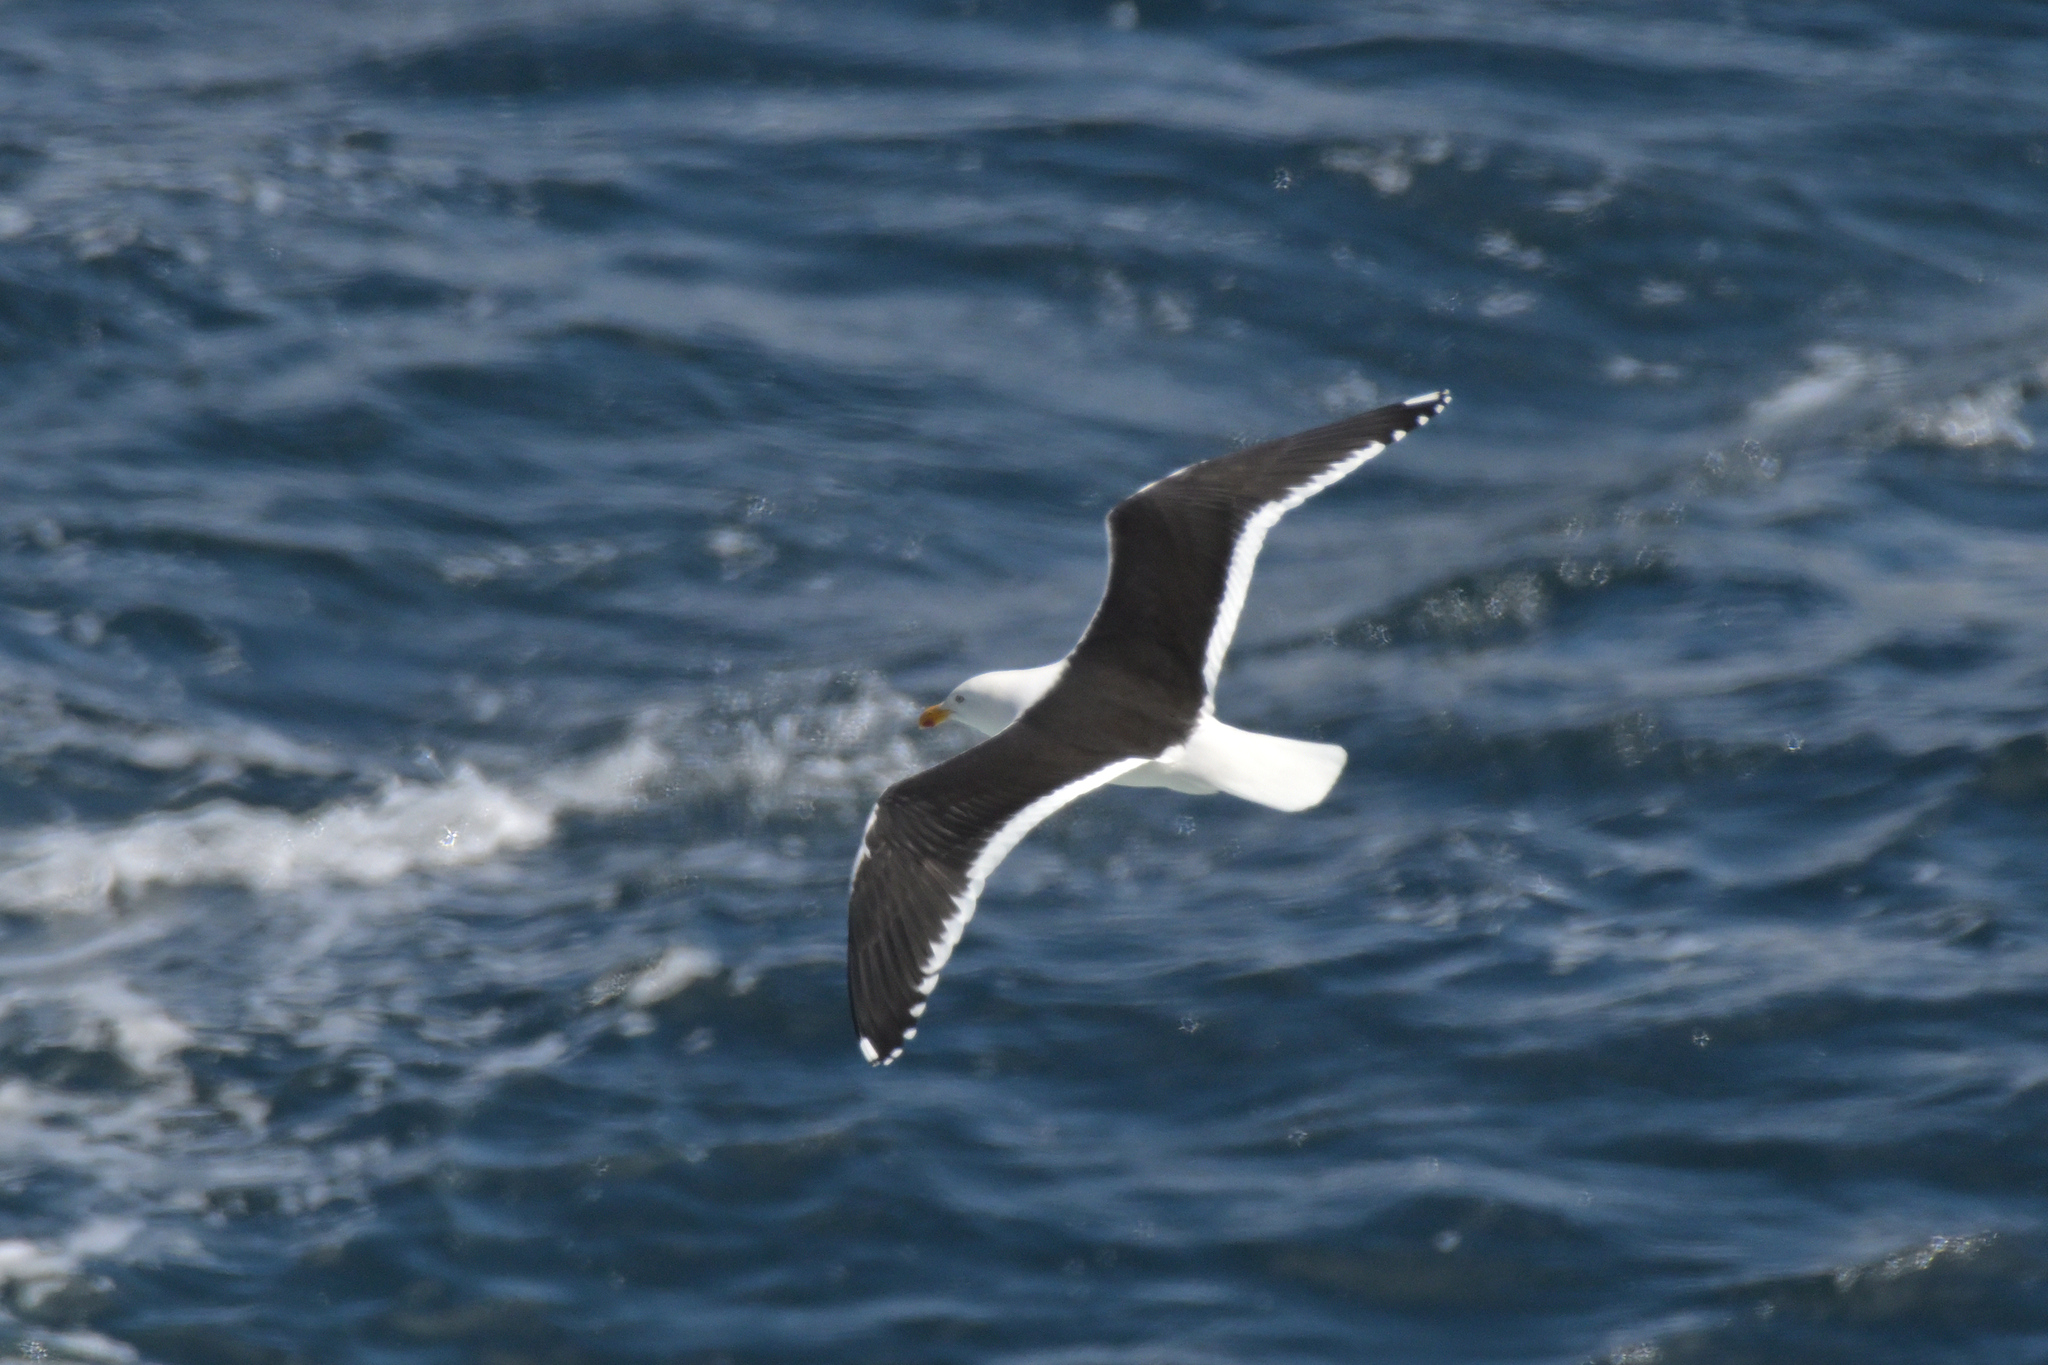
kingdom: Animalia
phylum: Chordata
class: Aves
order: Charadriiformes
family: Laridae
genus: Larus
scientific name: Larus dominicanus
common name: Kelp gull
